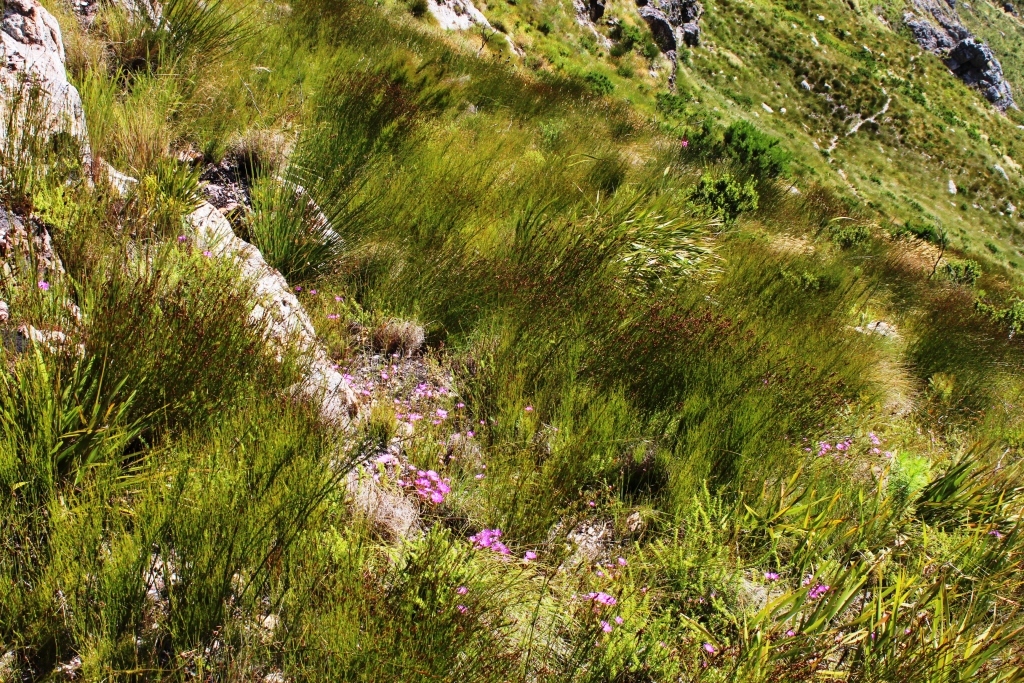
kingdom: Plantae
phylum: Tracheophyta
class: Magnoliopsida
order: Caryophyllales
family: Aizoaceae
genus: Lampranthus
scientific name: Lampranthus falcatus
